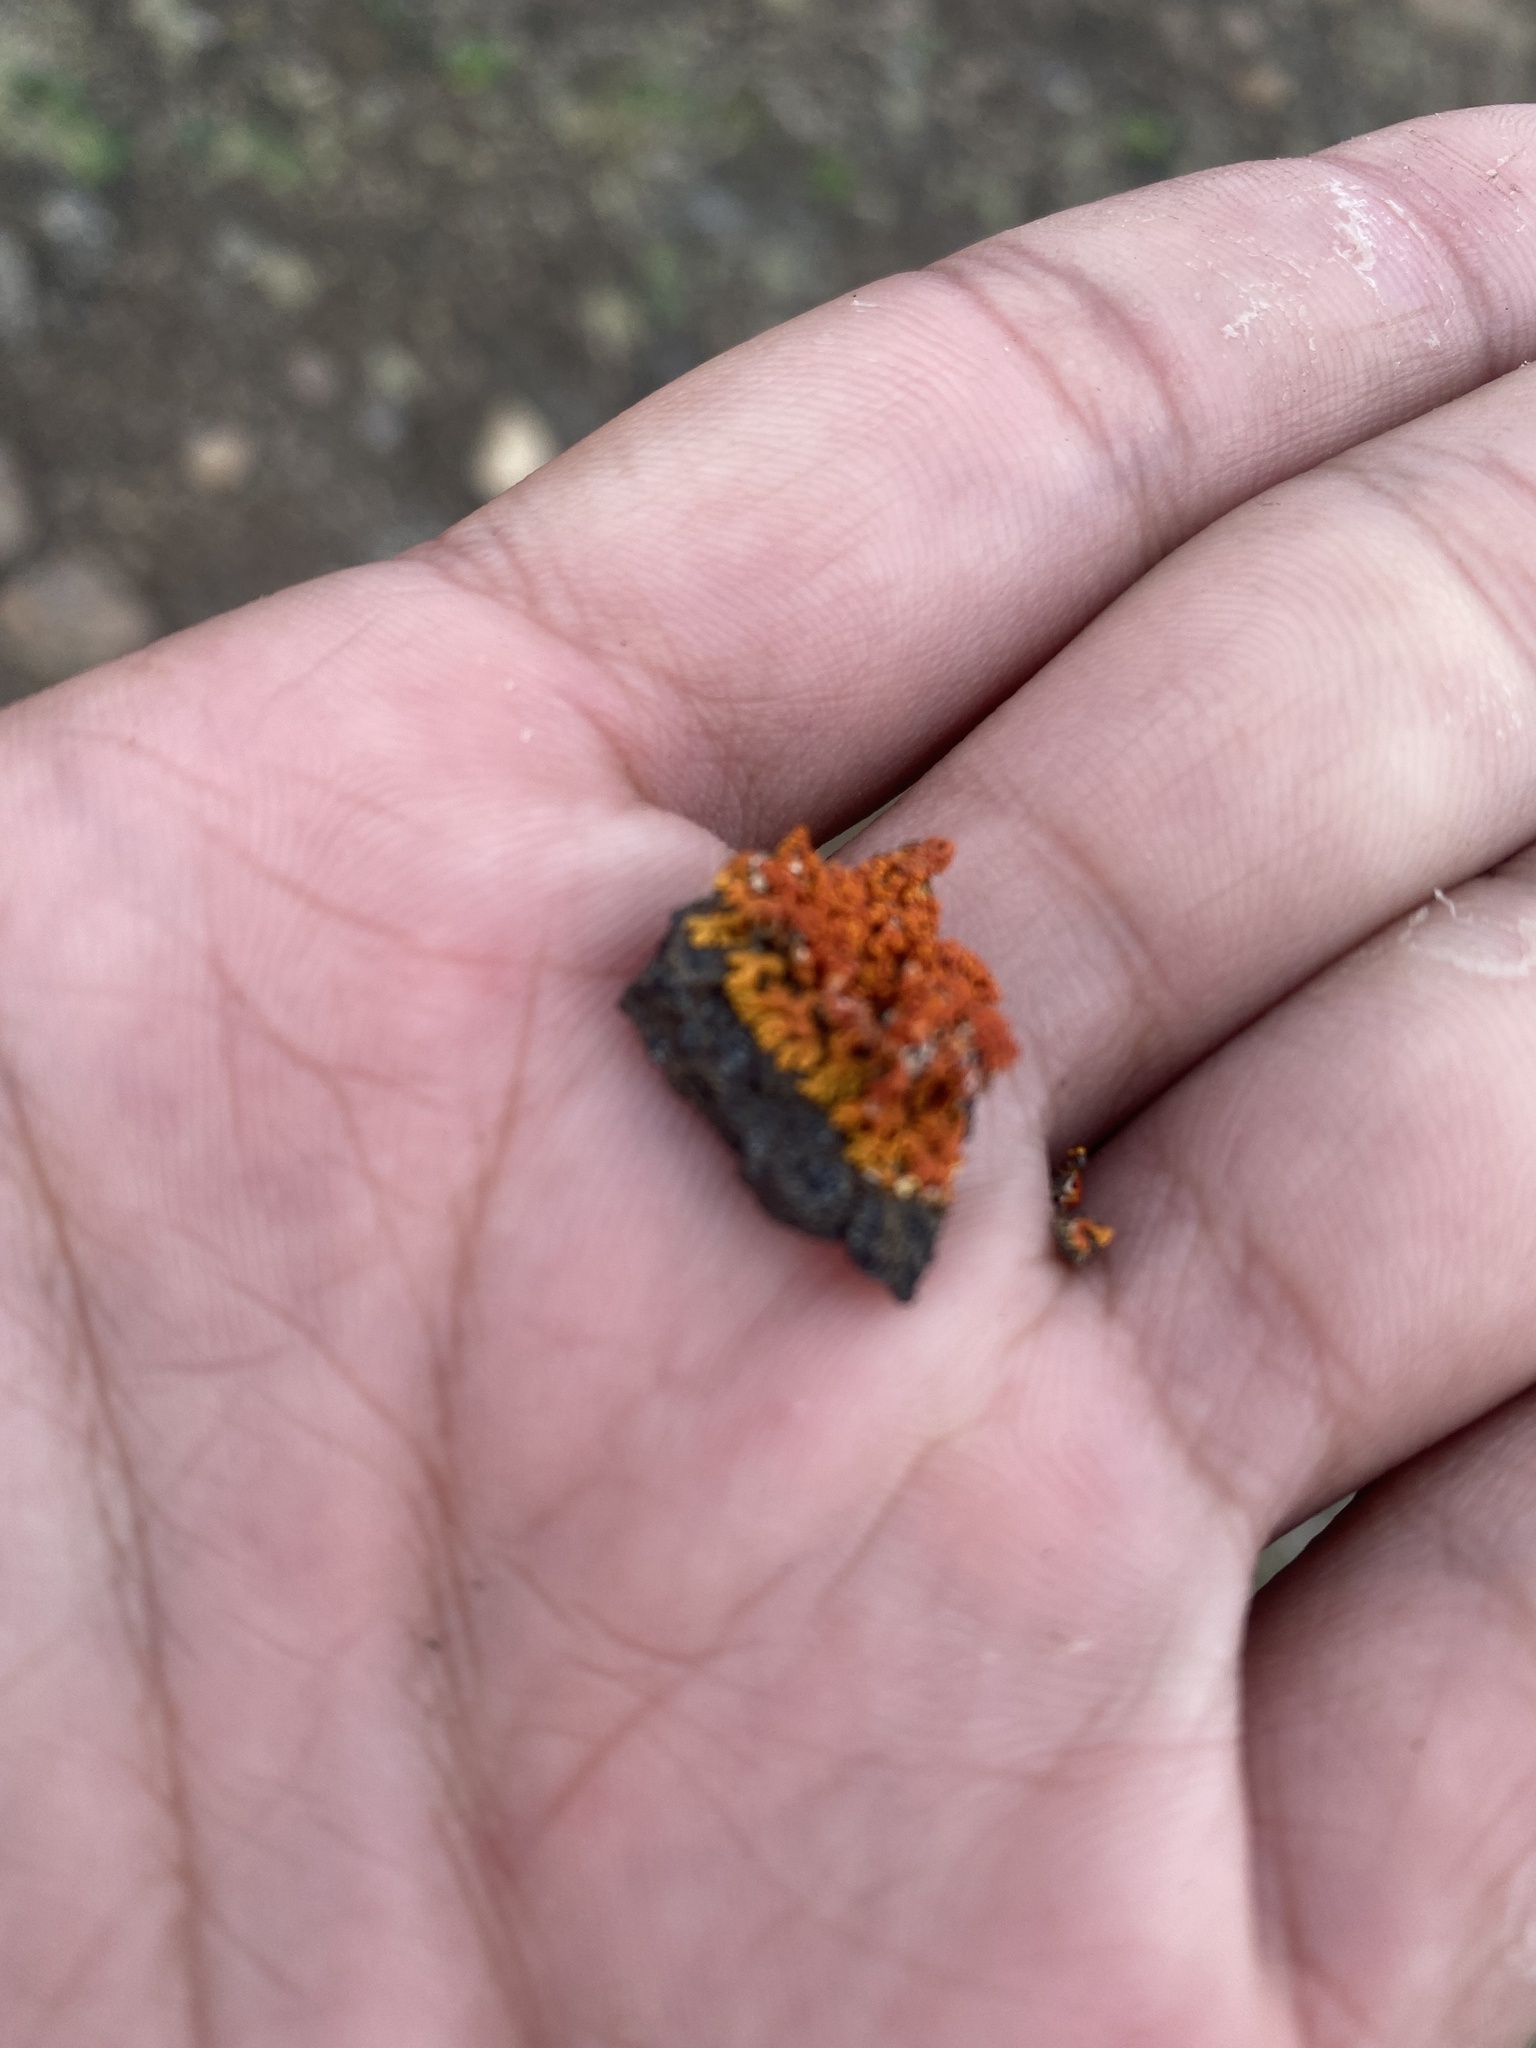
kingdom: Fungi
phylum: Ascomycota
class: Lecanoromycetes
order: Teloschistales
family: Teloschistaceae
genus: Xanthoria
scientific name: Xanthoria elegans
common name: Elegant sunburst lichen
